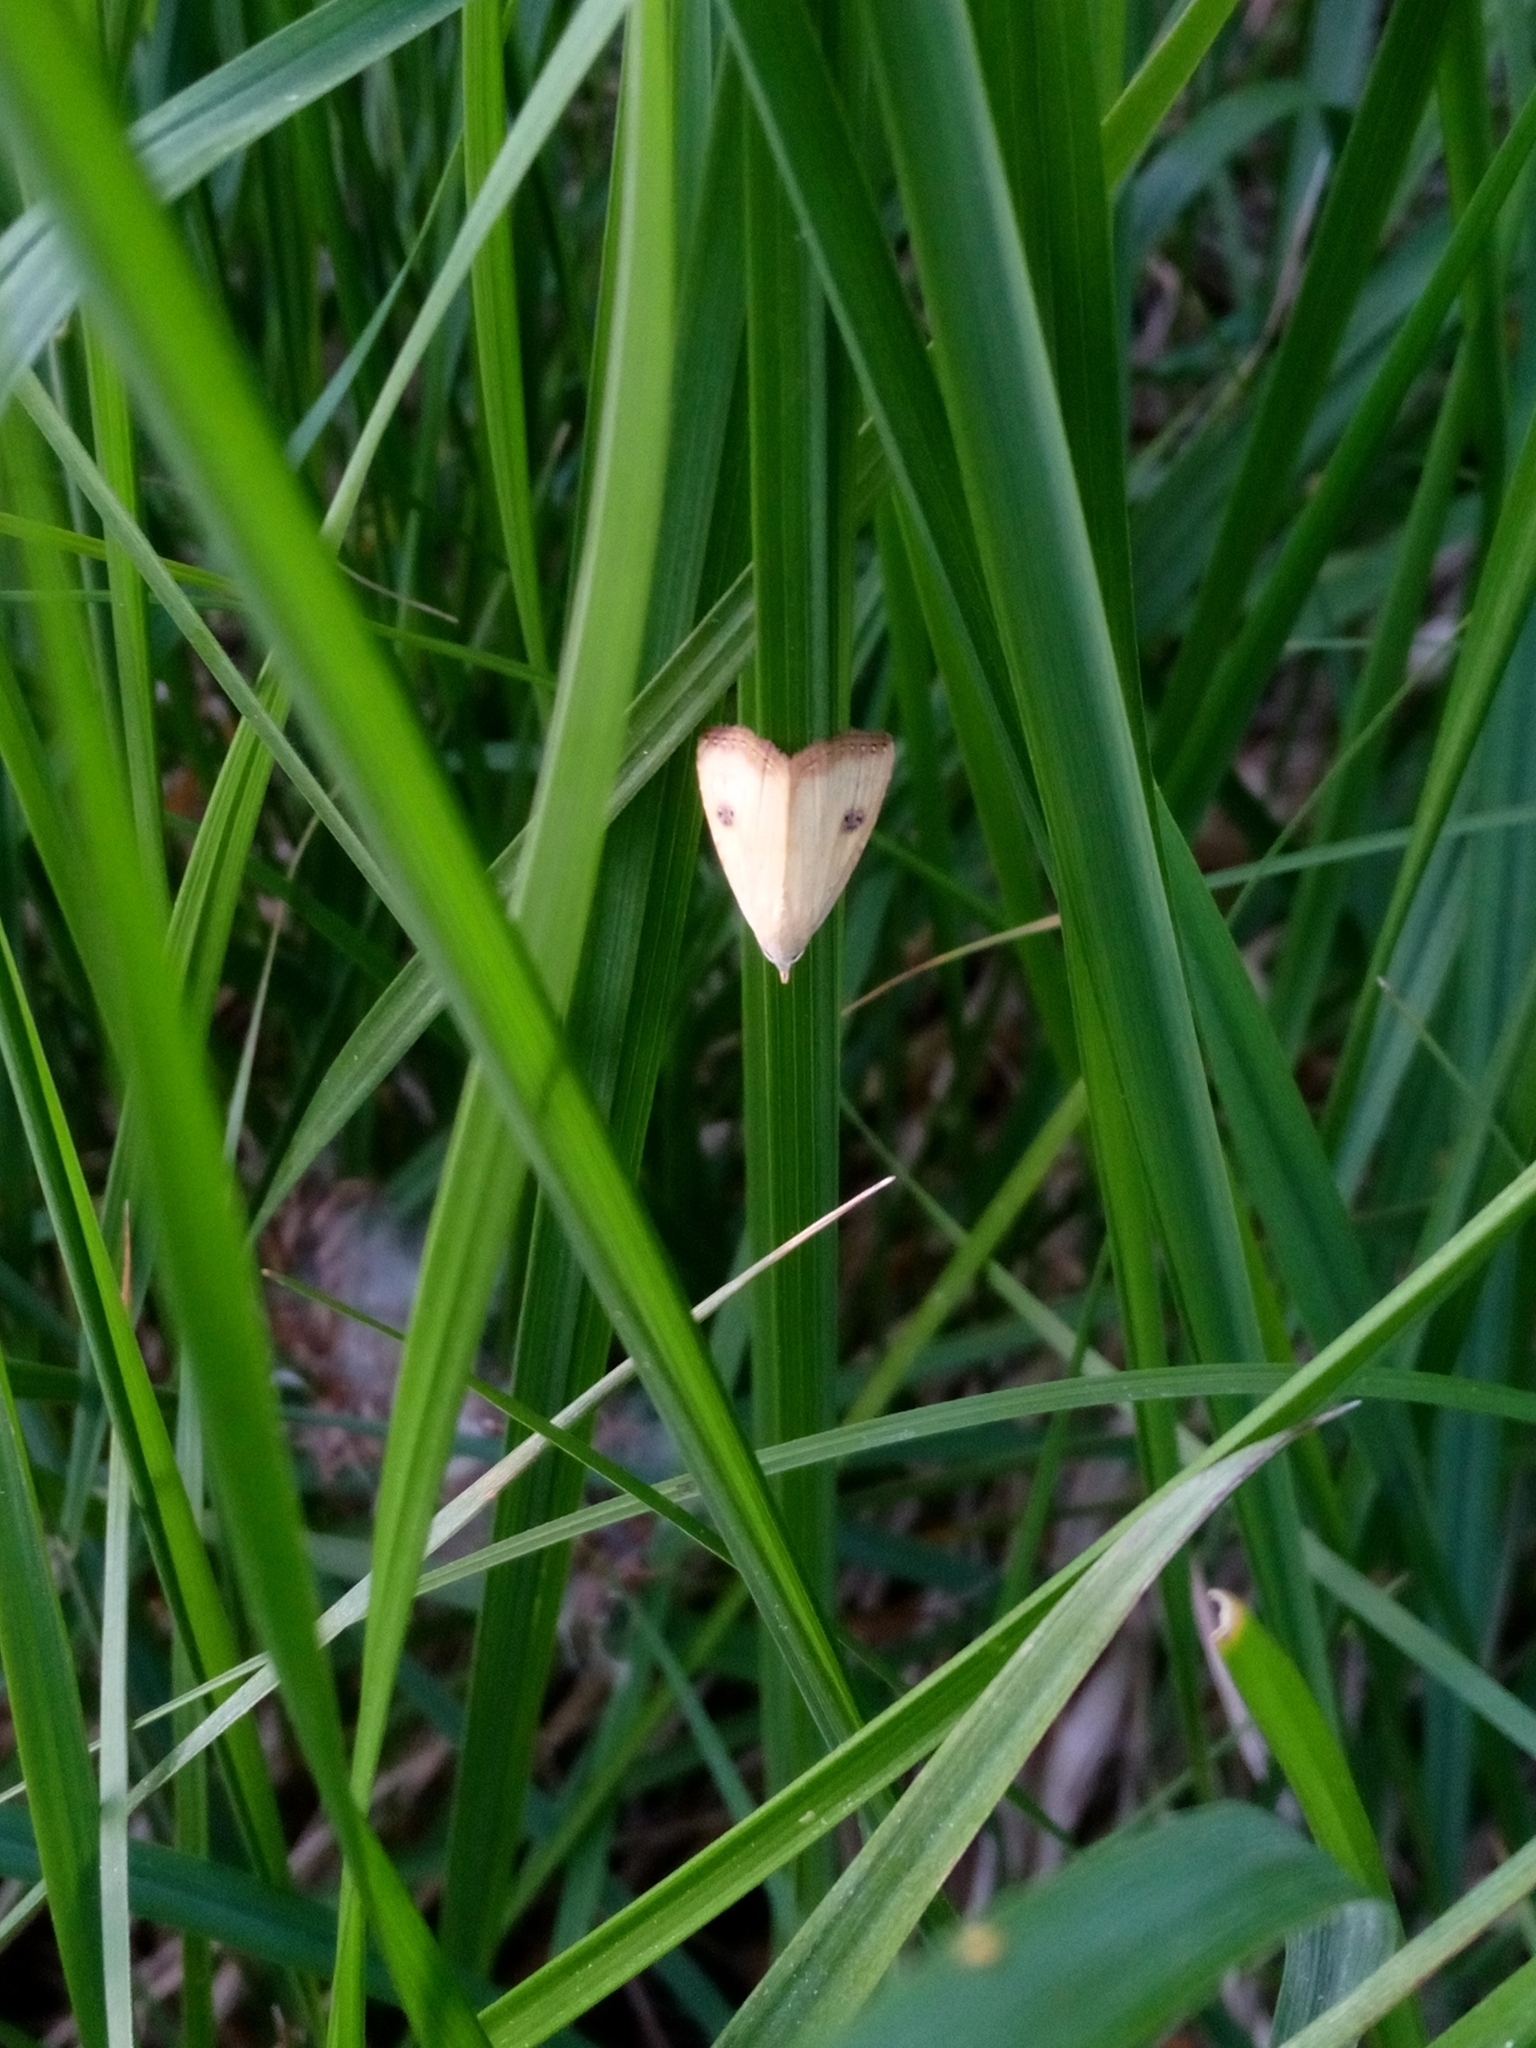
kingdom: Animalia
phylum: Arthropoda
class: Insecta
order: Lepidoptera
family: Erebidae
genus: Rivula
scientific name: Rivula sericealis
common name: Straw dot
